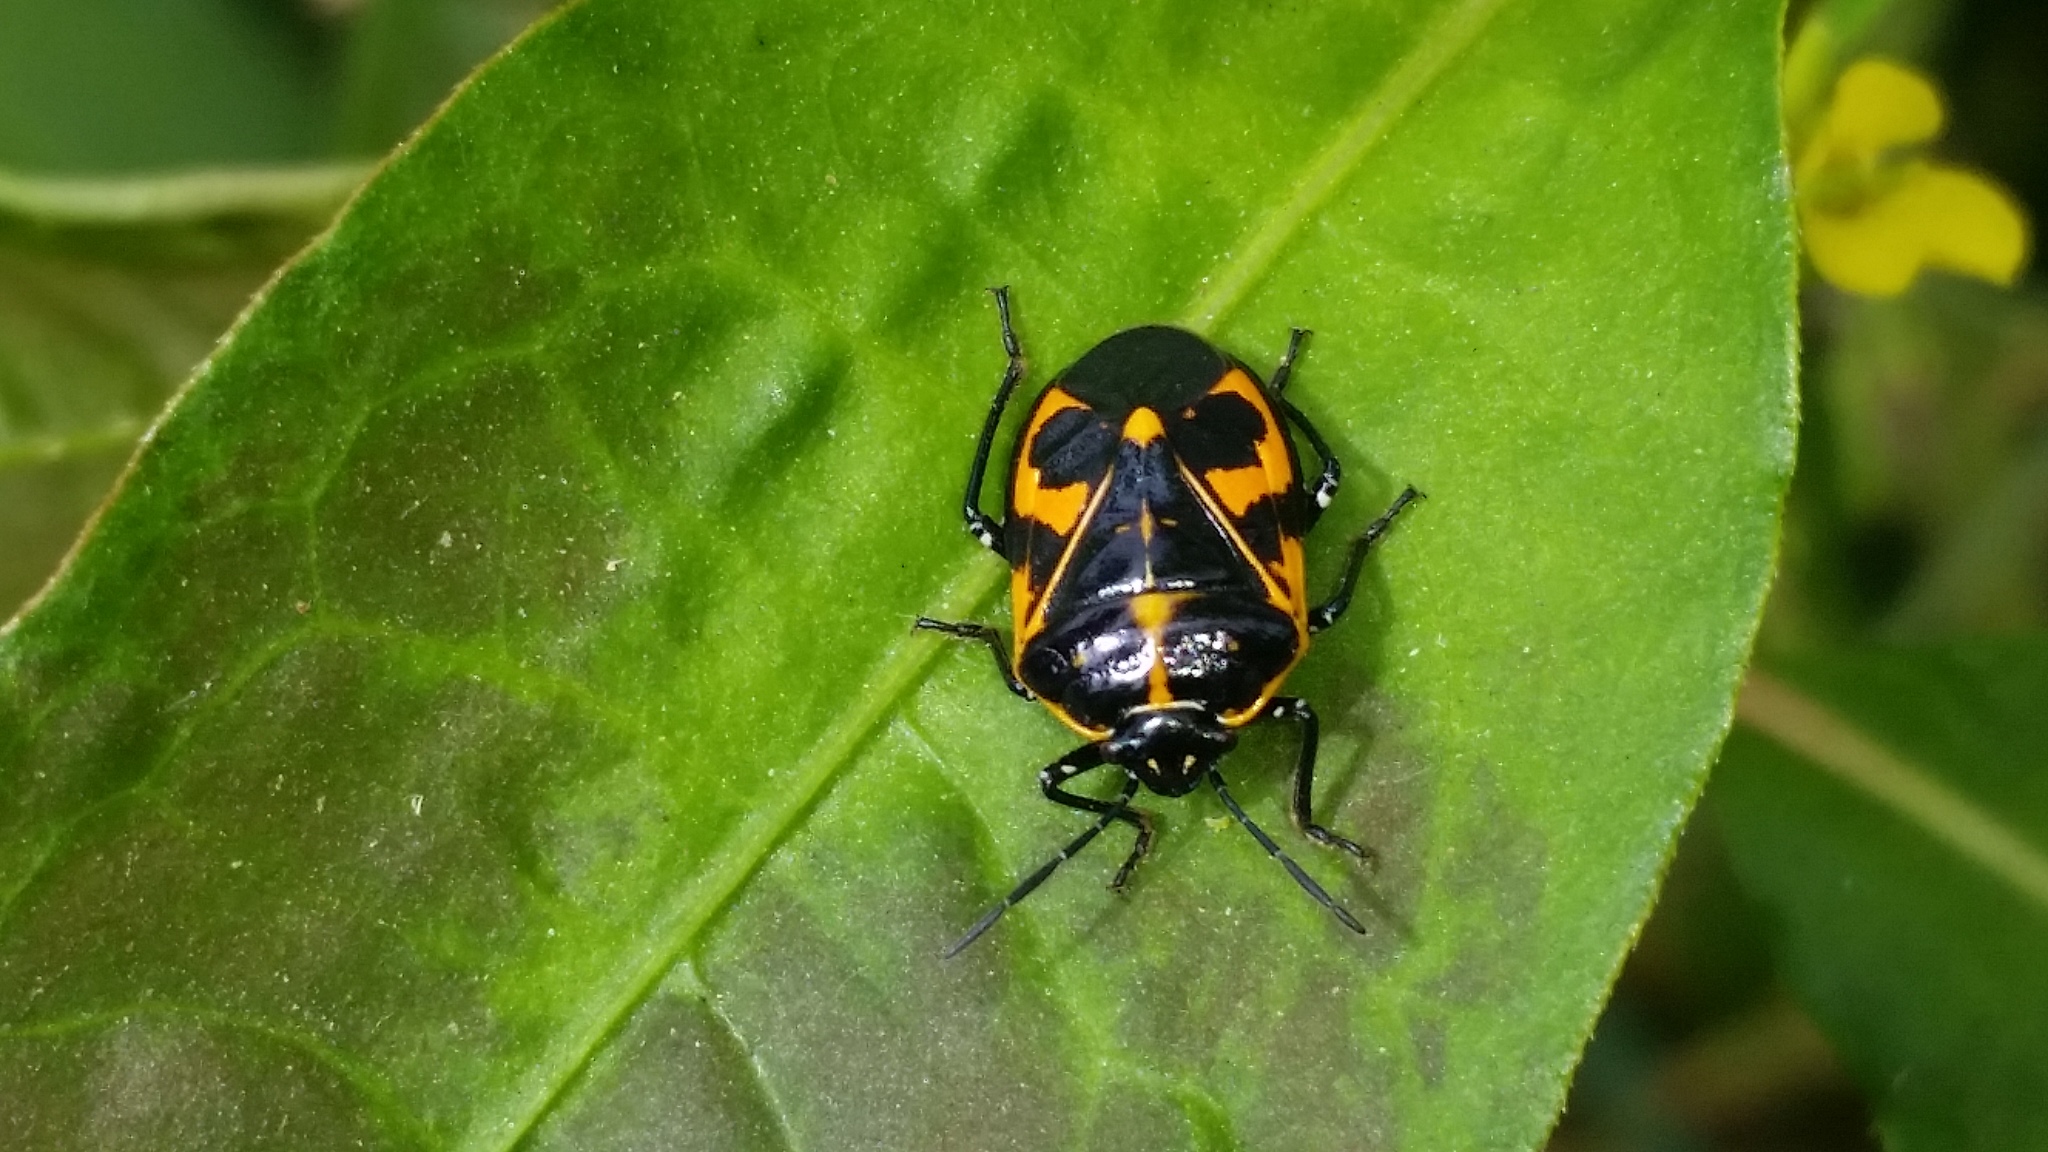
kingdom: Animalia
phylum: Arthropoda
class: Insecta
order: Hemiptera
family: Pentatomidae
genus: Murgantia
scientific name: Murgantia histrionica
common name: Harlequin bug
